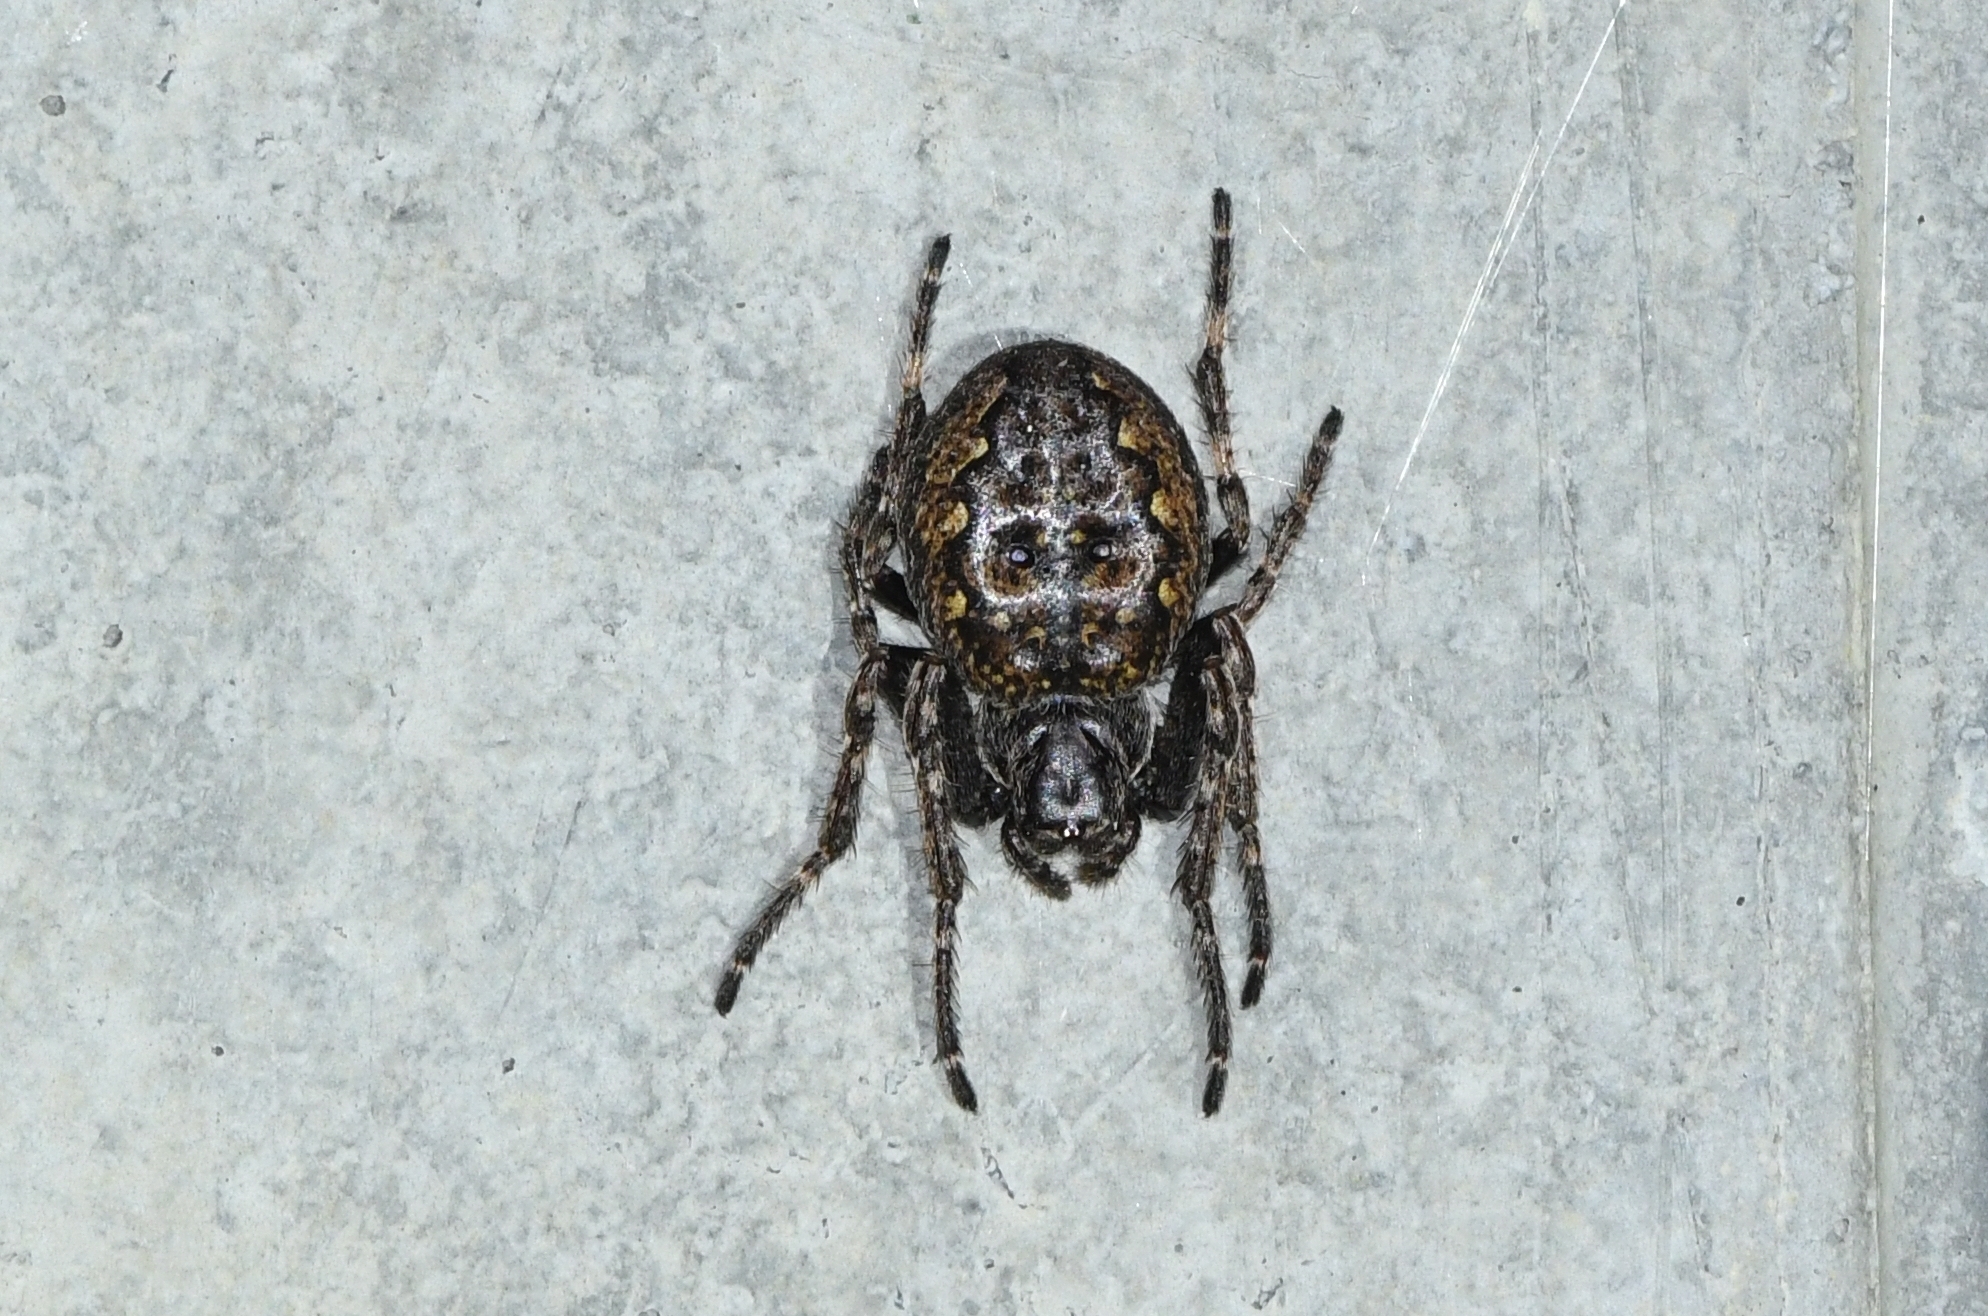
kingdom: Animalia
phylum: Arthropoda
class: Arachnida
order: Araneae
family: Araneidae
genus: Nuctenea
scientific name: Nuctenea umbratica
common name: Toad spider
